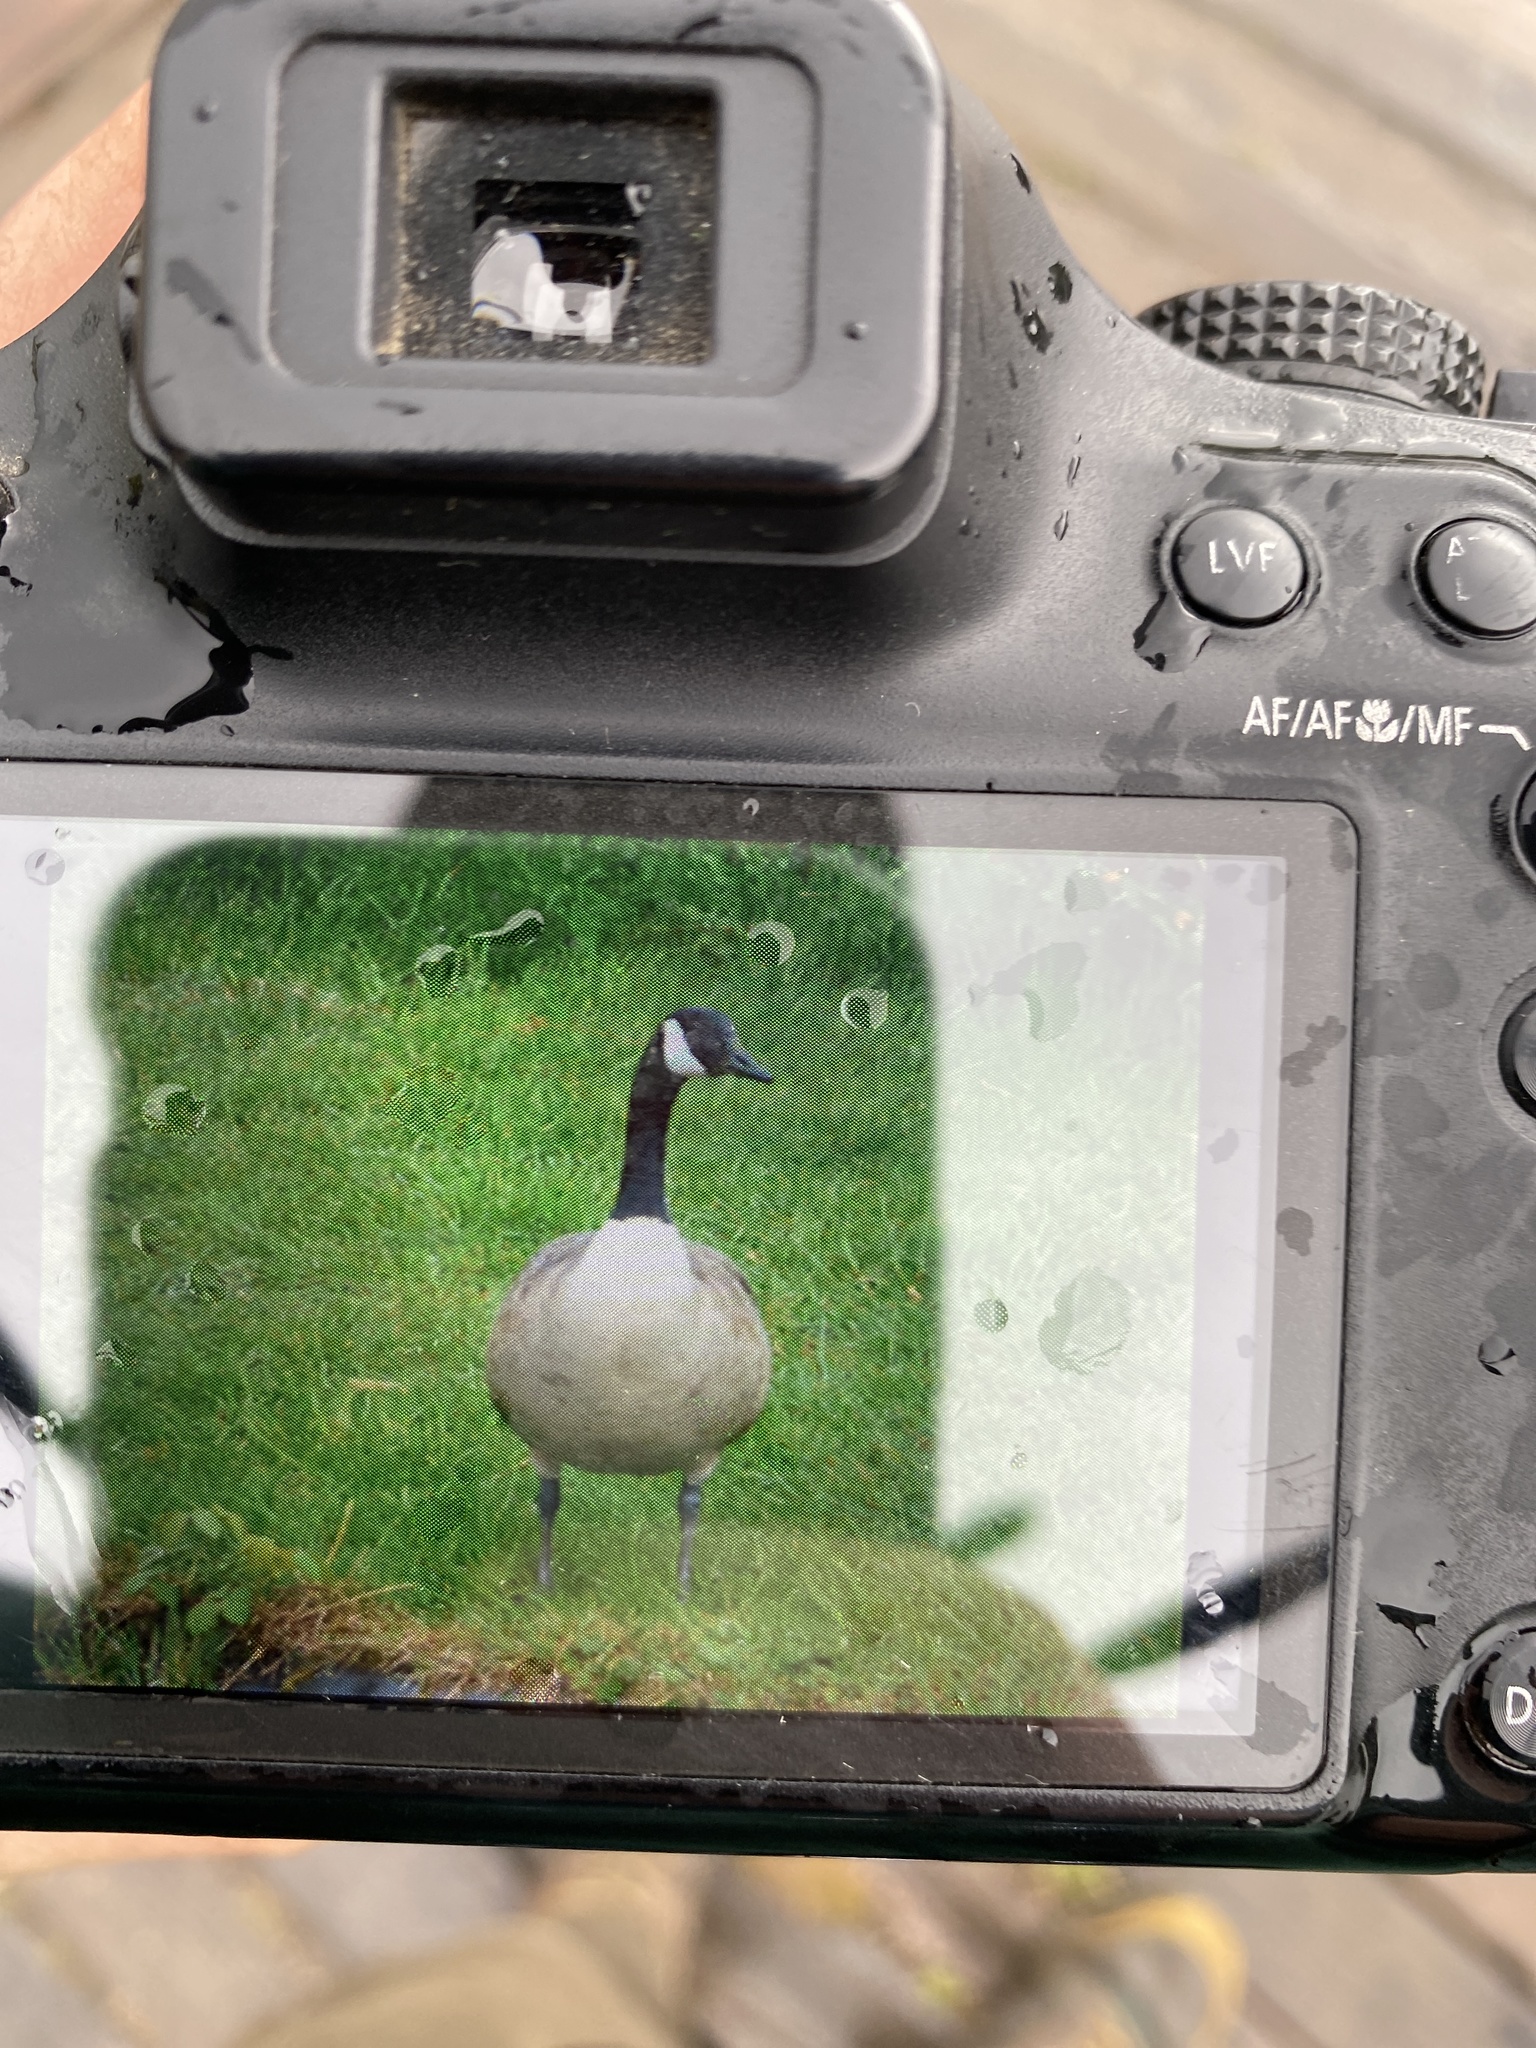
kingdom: Animalia
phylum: Chordata
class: Aves
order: Anseriformes
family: Anatidae
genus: Branta
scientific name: Branta canadensis
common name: Canada goose
